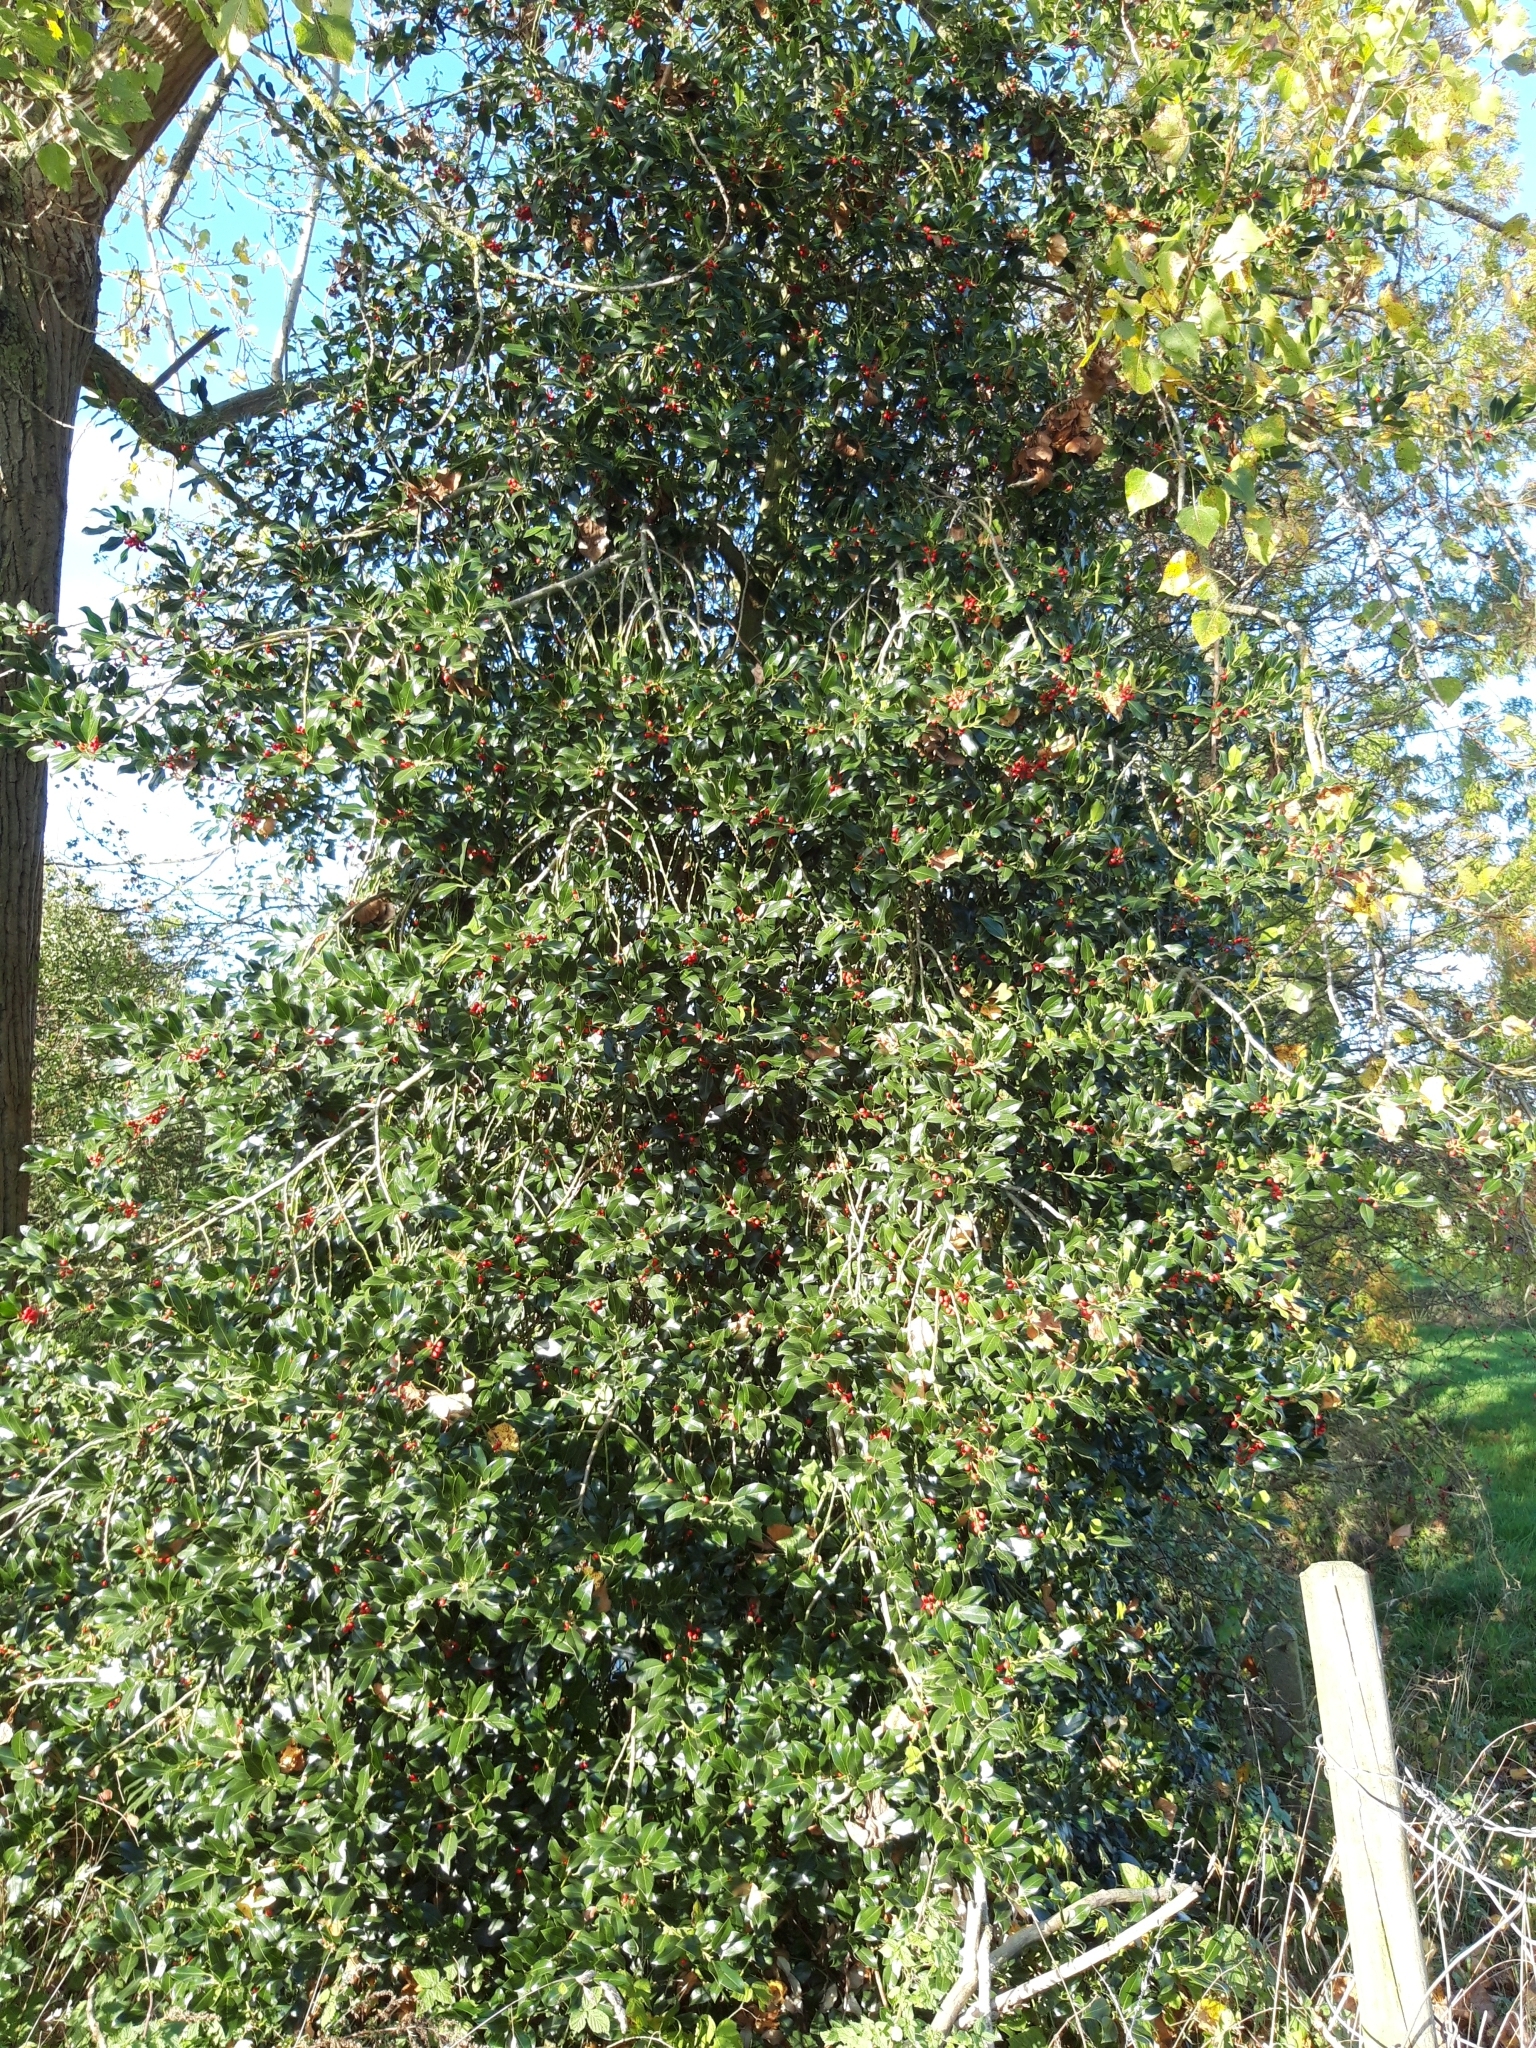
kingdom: Plantae
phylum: Tracheophyta
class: Magnoliopsida
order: Aquifoliales
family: Aquifoliaceae
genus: Ilex
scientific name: Ilex aquifolium
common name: English holly
